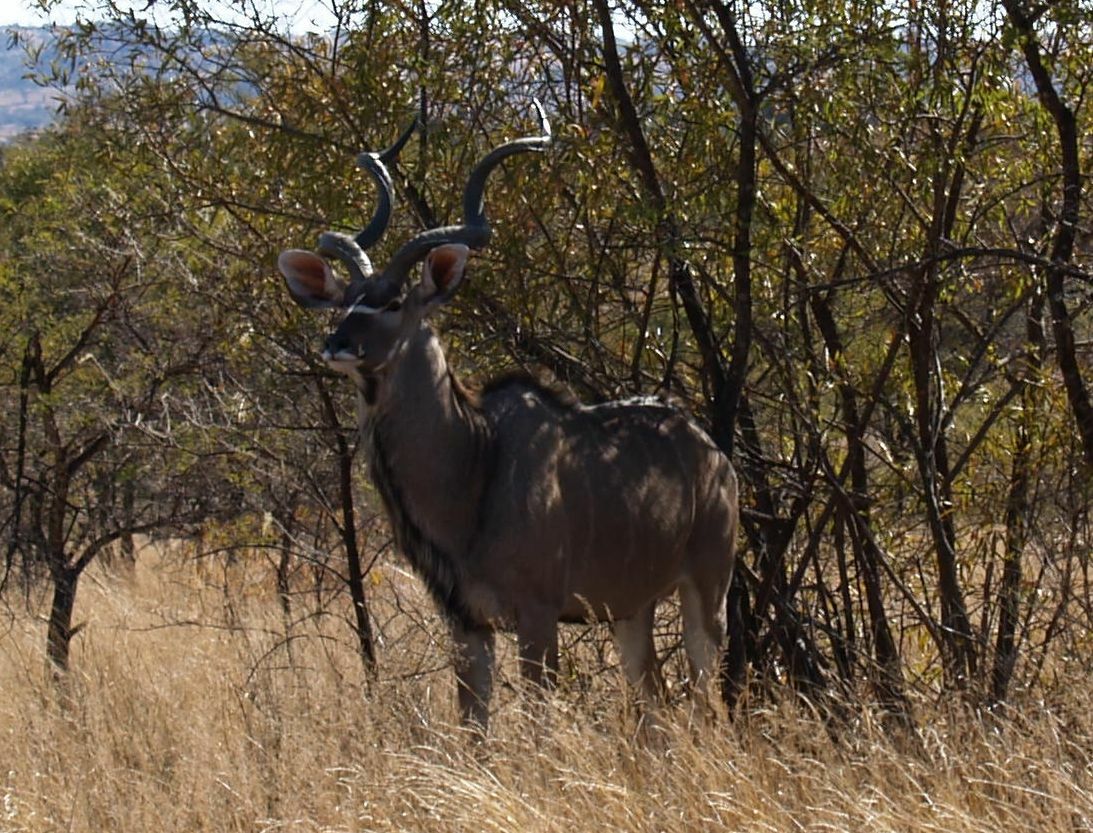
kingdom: Animalia
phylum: Chordata
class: Mammalia
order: Artiodactyla
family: Bovidae
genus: Tragelaphus
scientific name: Tragelaphus strepsiceros
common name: Greater kudu
